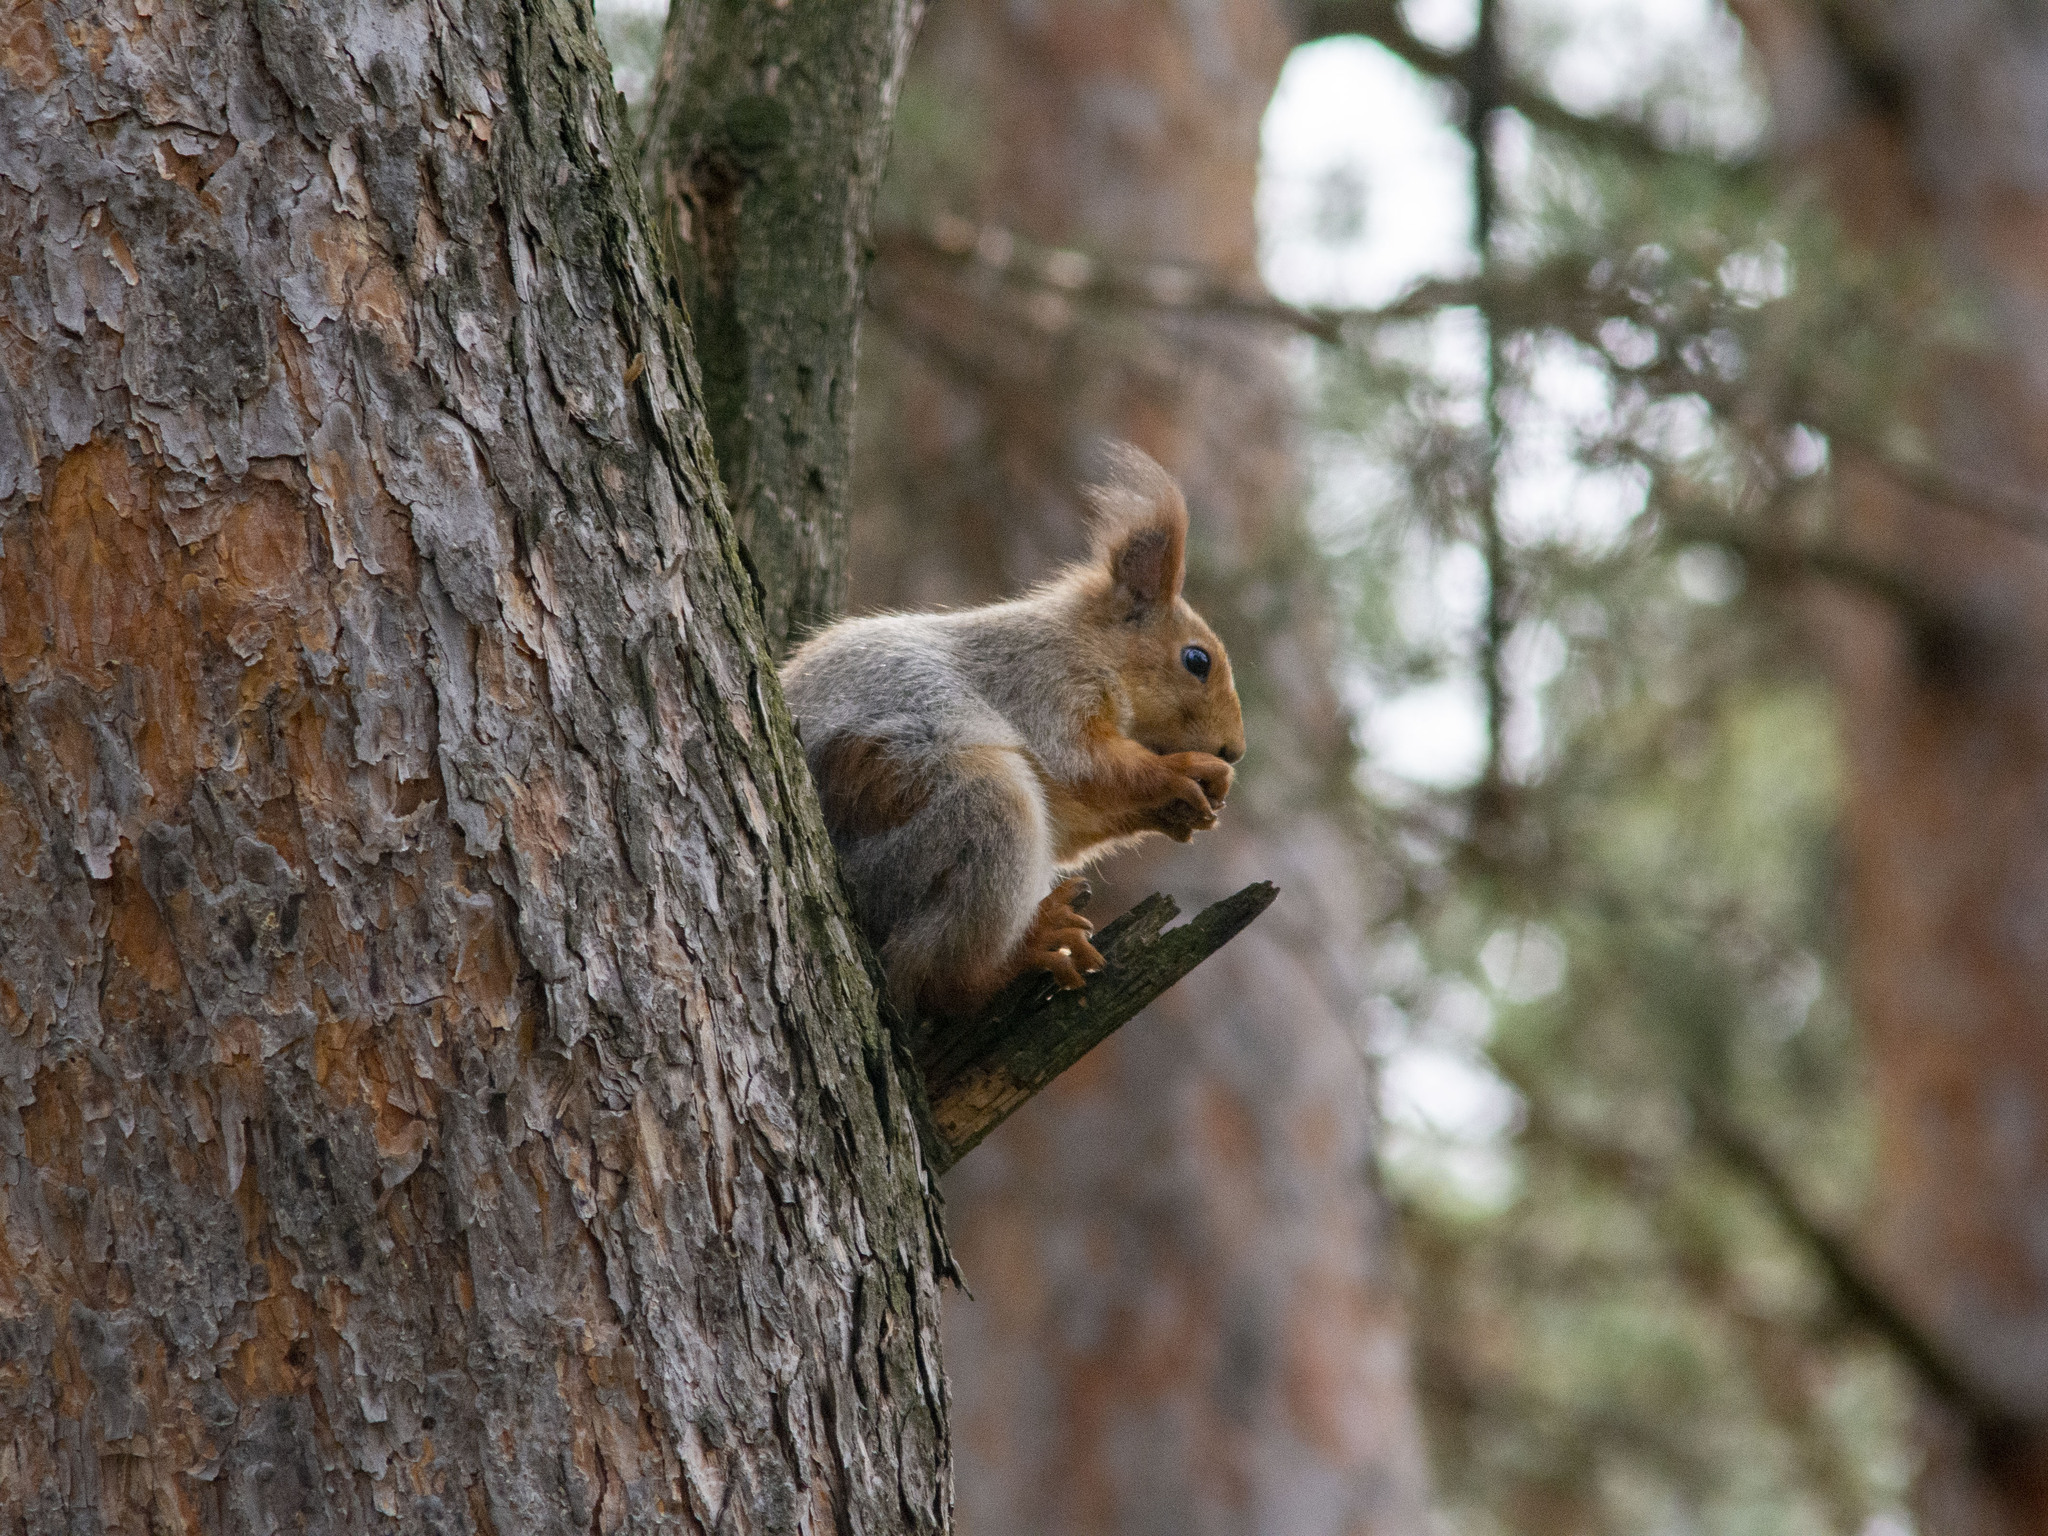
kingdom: Animalia
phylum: Chordata
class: Mammalia
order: Rodentia
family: Sciuridae
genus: Sciurus
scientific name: Sciurus vulgaris
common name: Eurasian red squirrel
